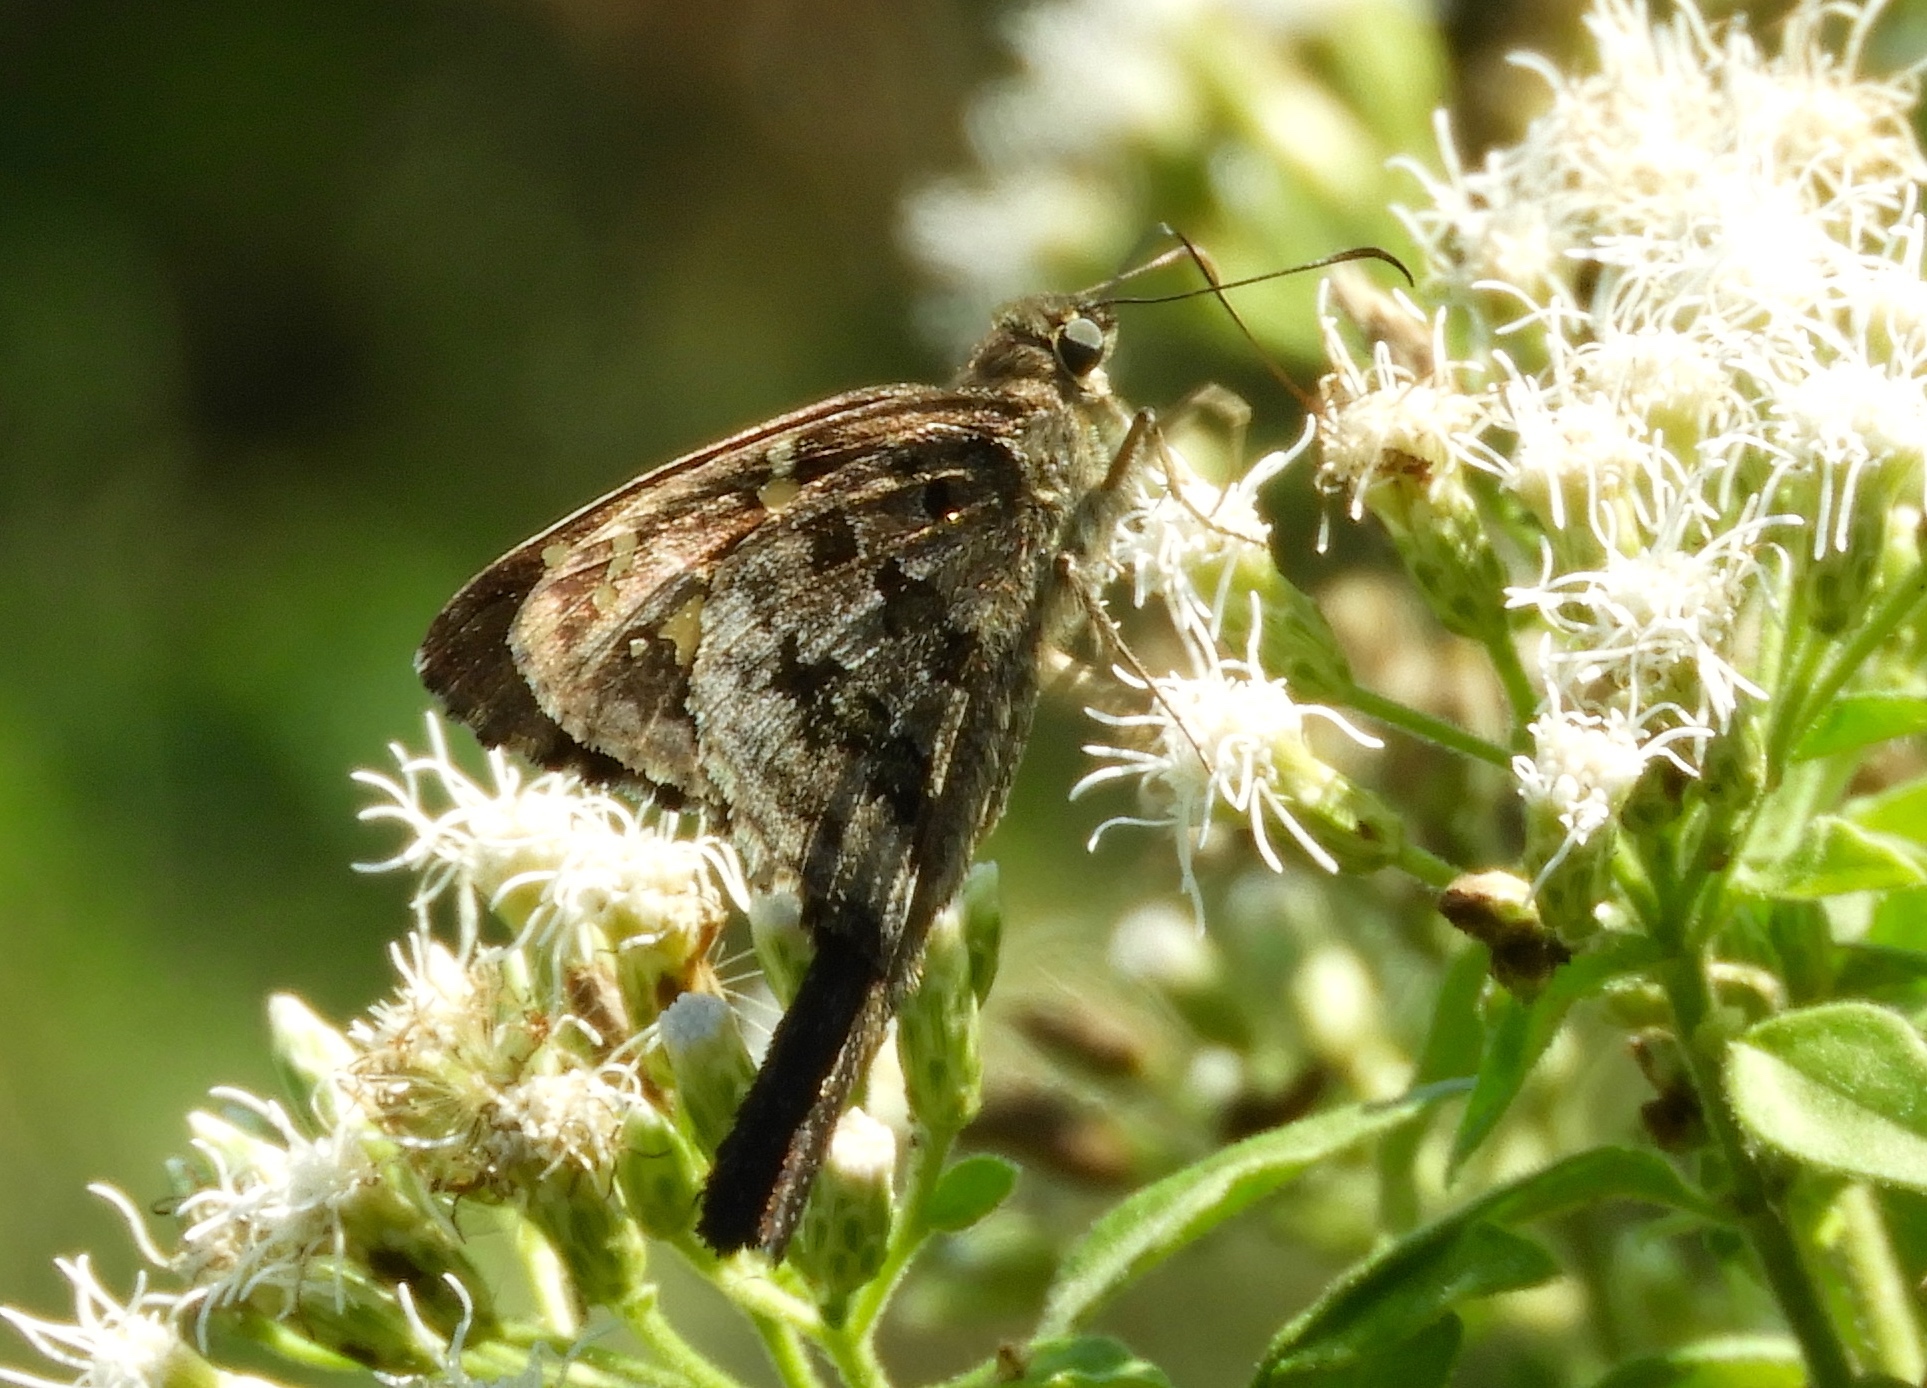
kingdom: Animalia
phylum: Arthropoda
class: Insecta
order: Lepidoptera
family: Hesperiidae
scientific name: Hesperiidae
